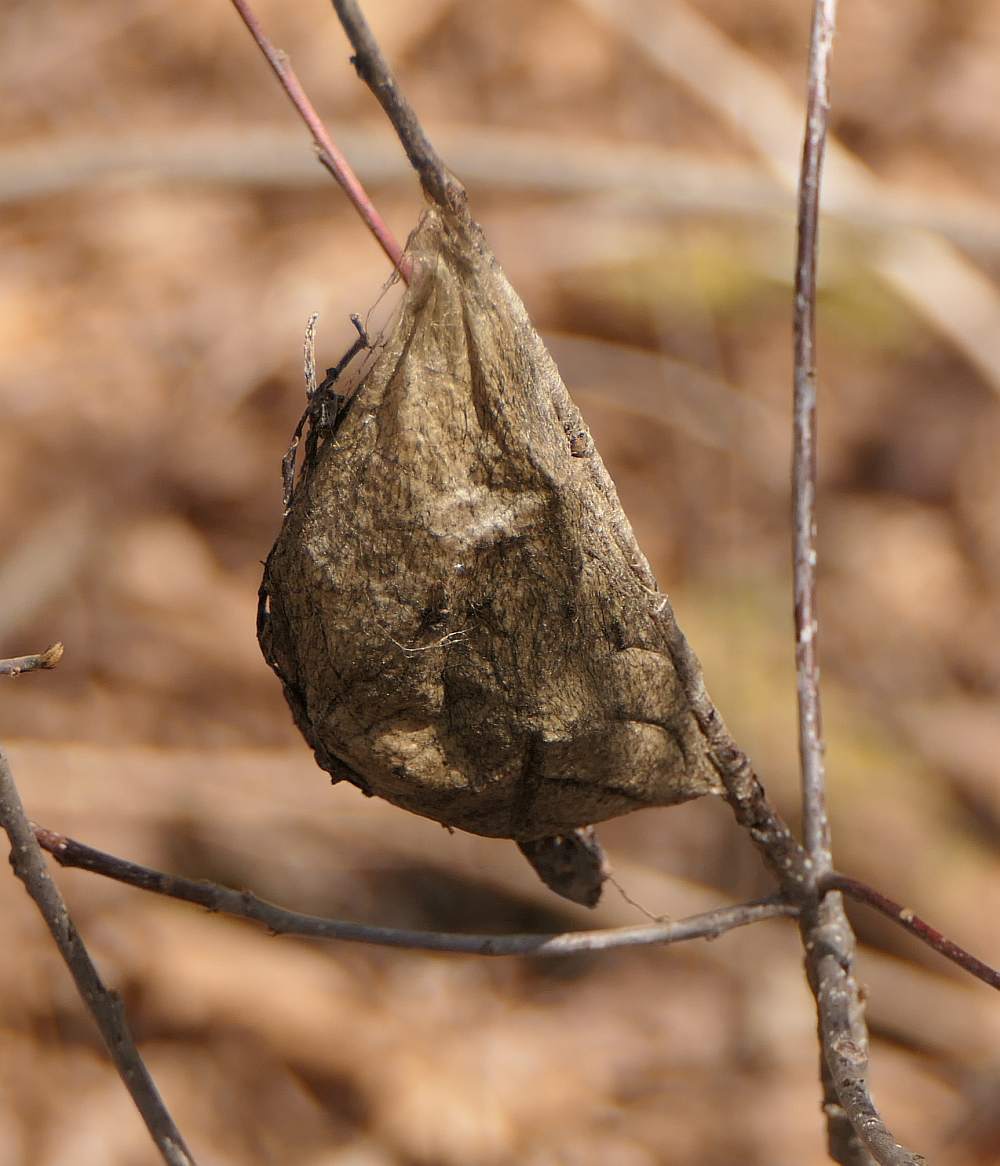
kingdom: Animalia
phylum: Arthropoda
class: Insecta
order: Lepidoptera
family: Saturniidae
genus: Hyalophora
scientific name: Hyalophora cecropia
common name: Cecropia silkmoth
